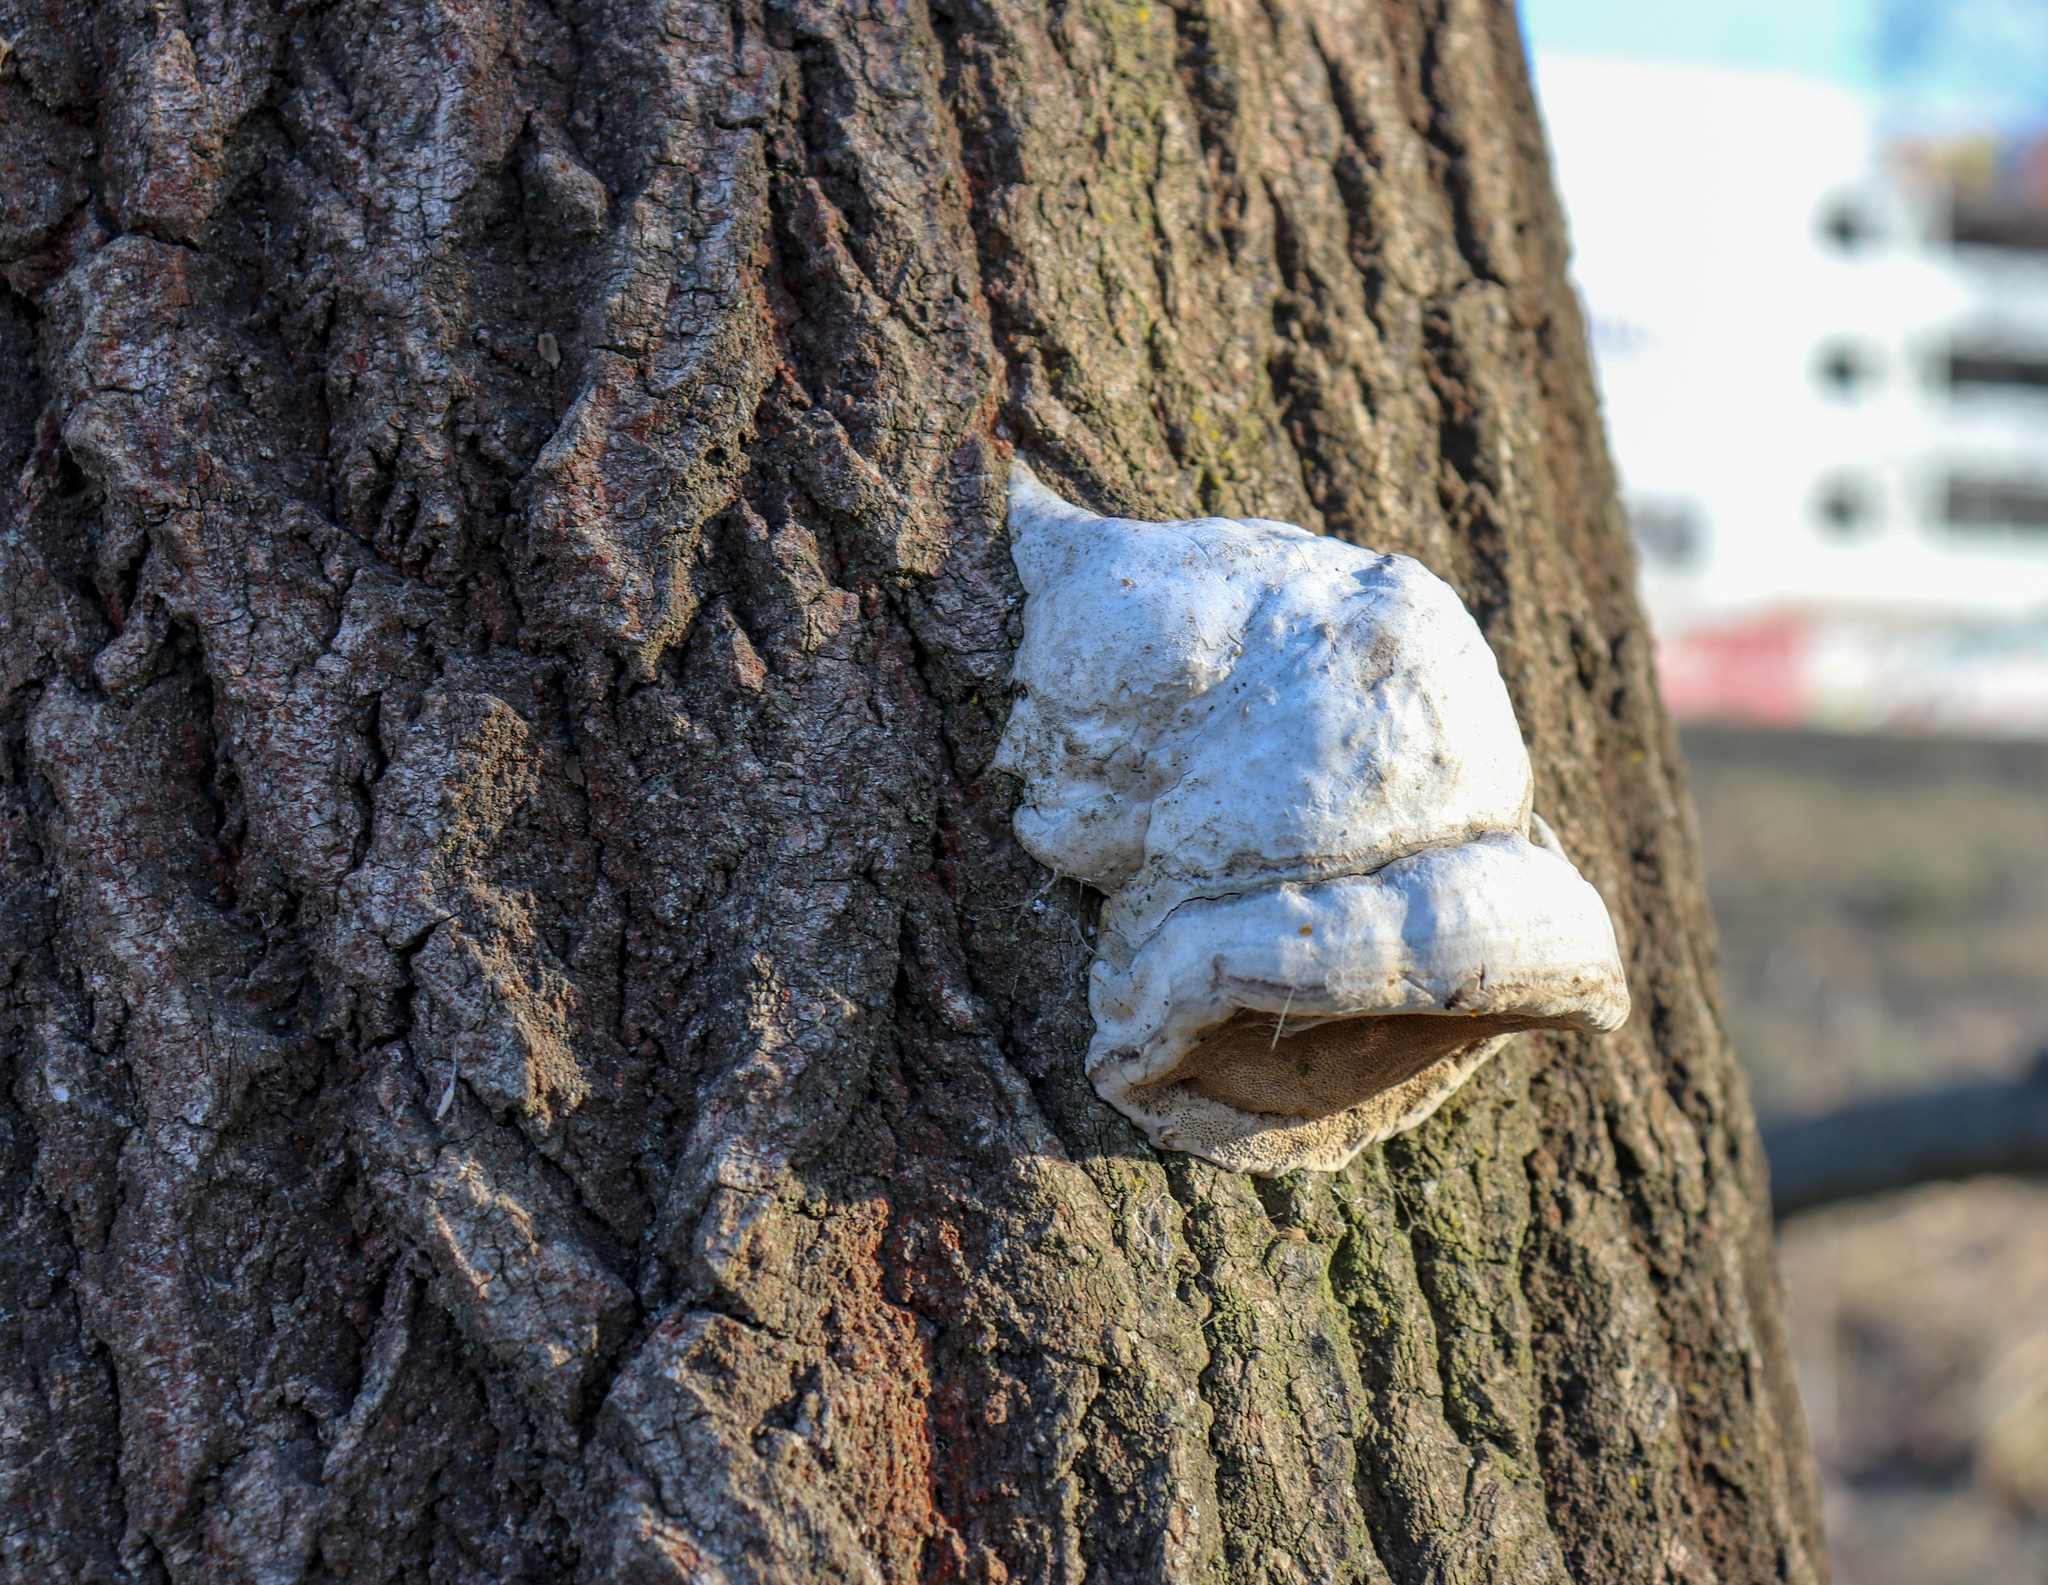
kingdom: Fungi
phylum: Basidiomycota
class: Agaricomycetes
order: Polyporales
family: Polyporaceae
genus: Fomes
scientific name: Fomes fomentarius
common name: Hoof fungus
